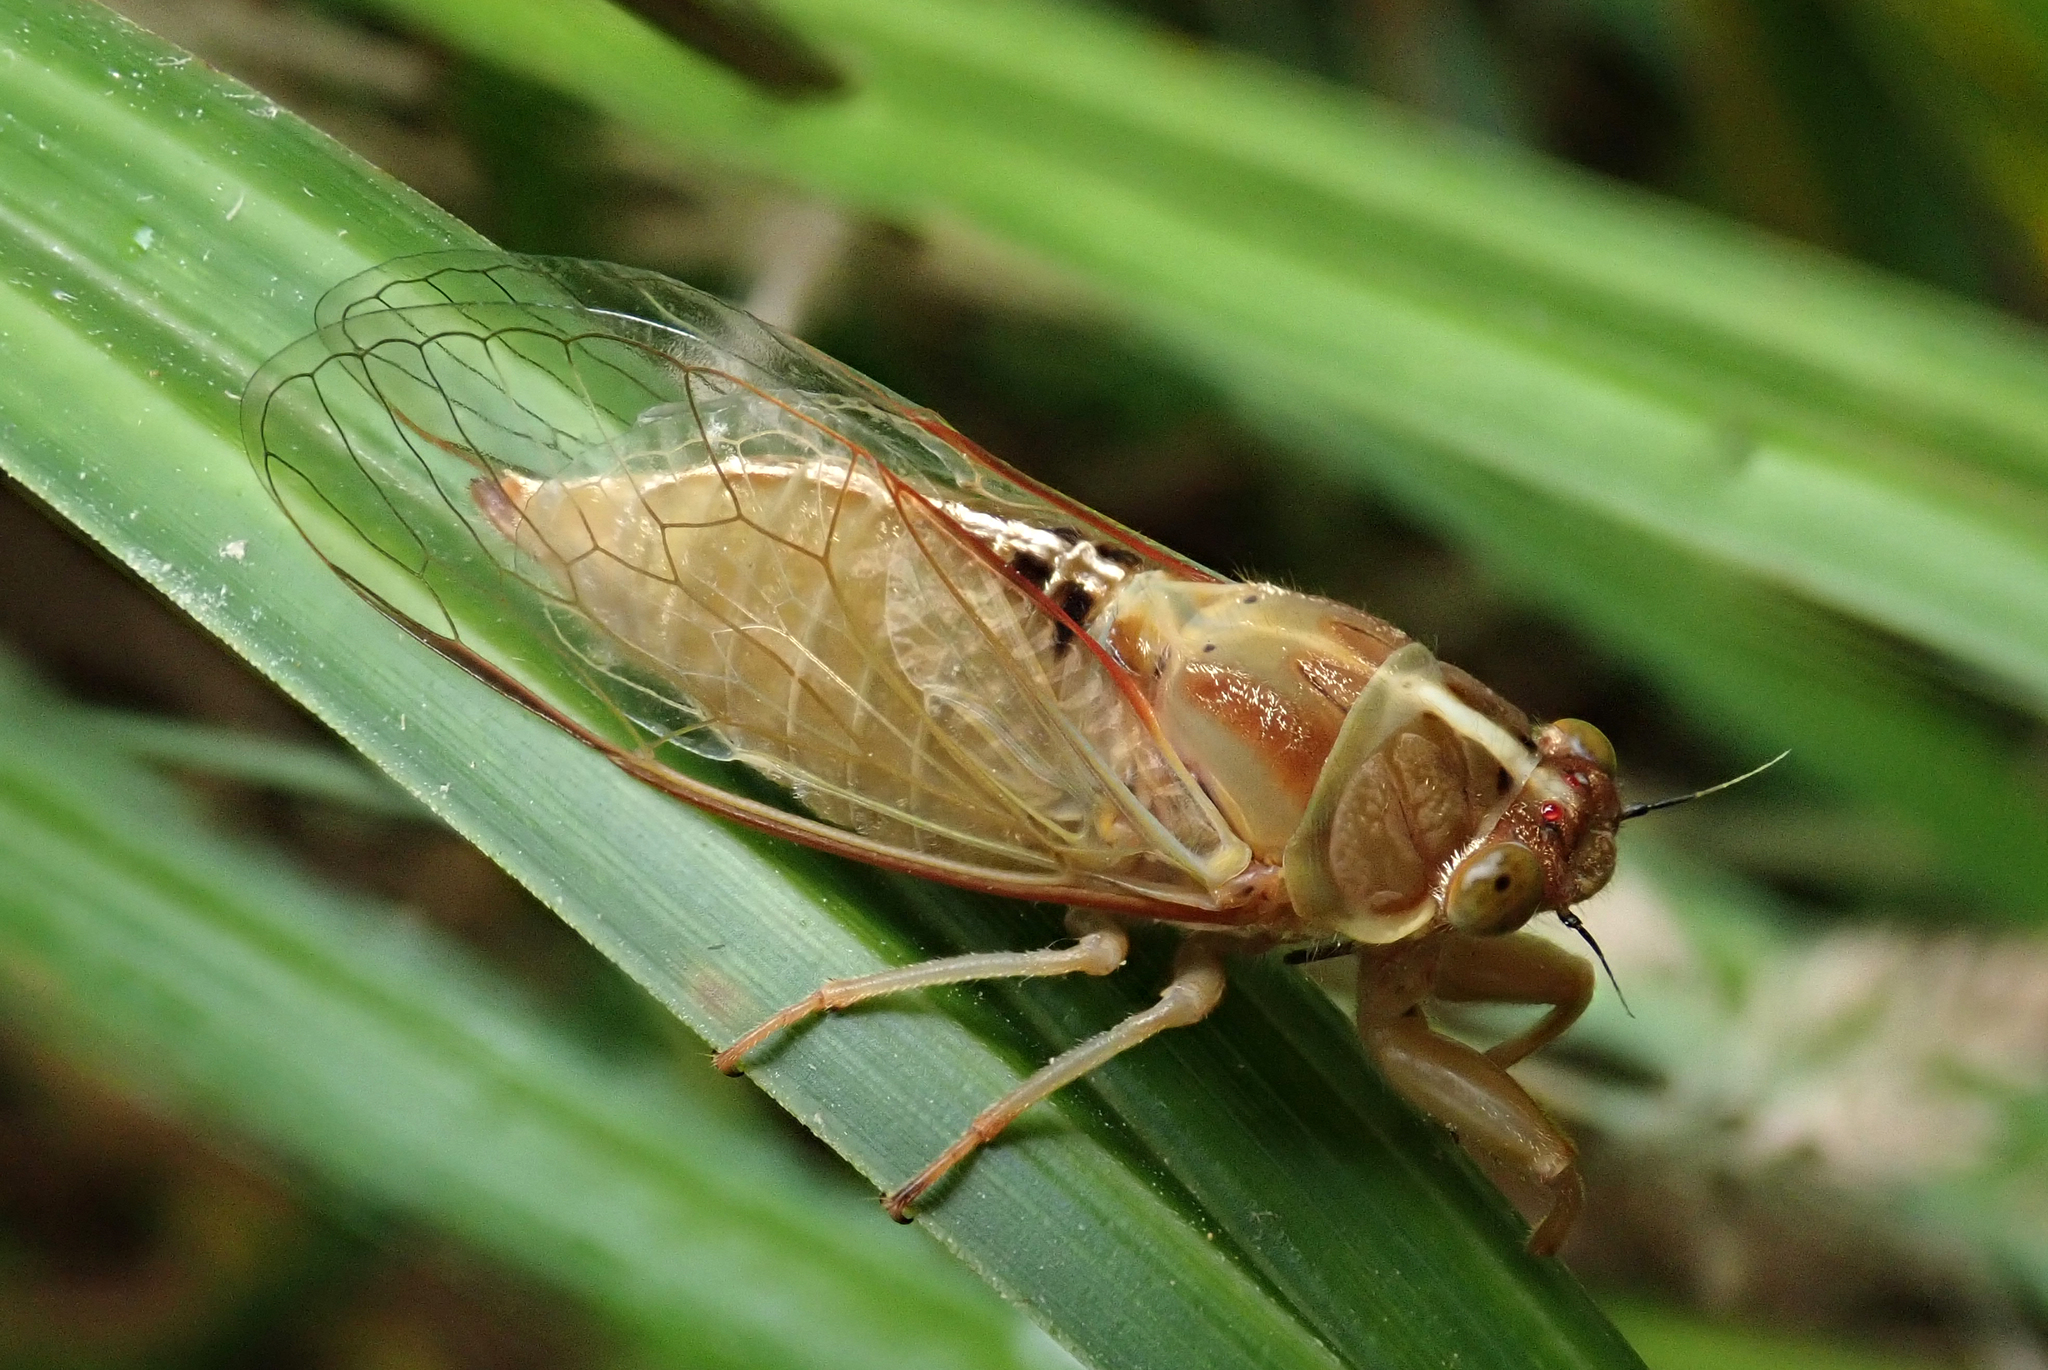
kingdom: Animalia
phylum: Arthropoda
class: Insecta
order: Hemiptera
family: Cicadidae
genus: Kikihia
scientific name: Kikihia muta
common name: Variable cicada
